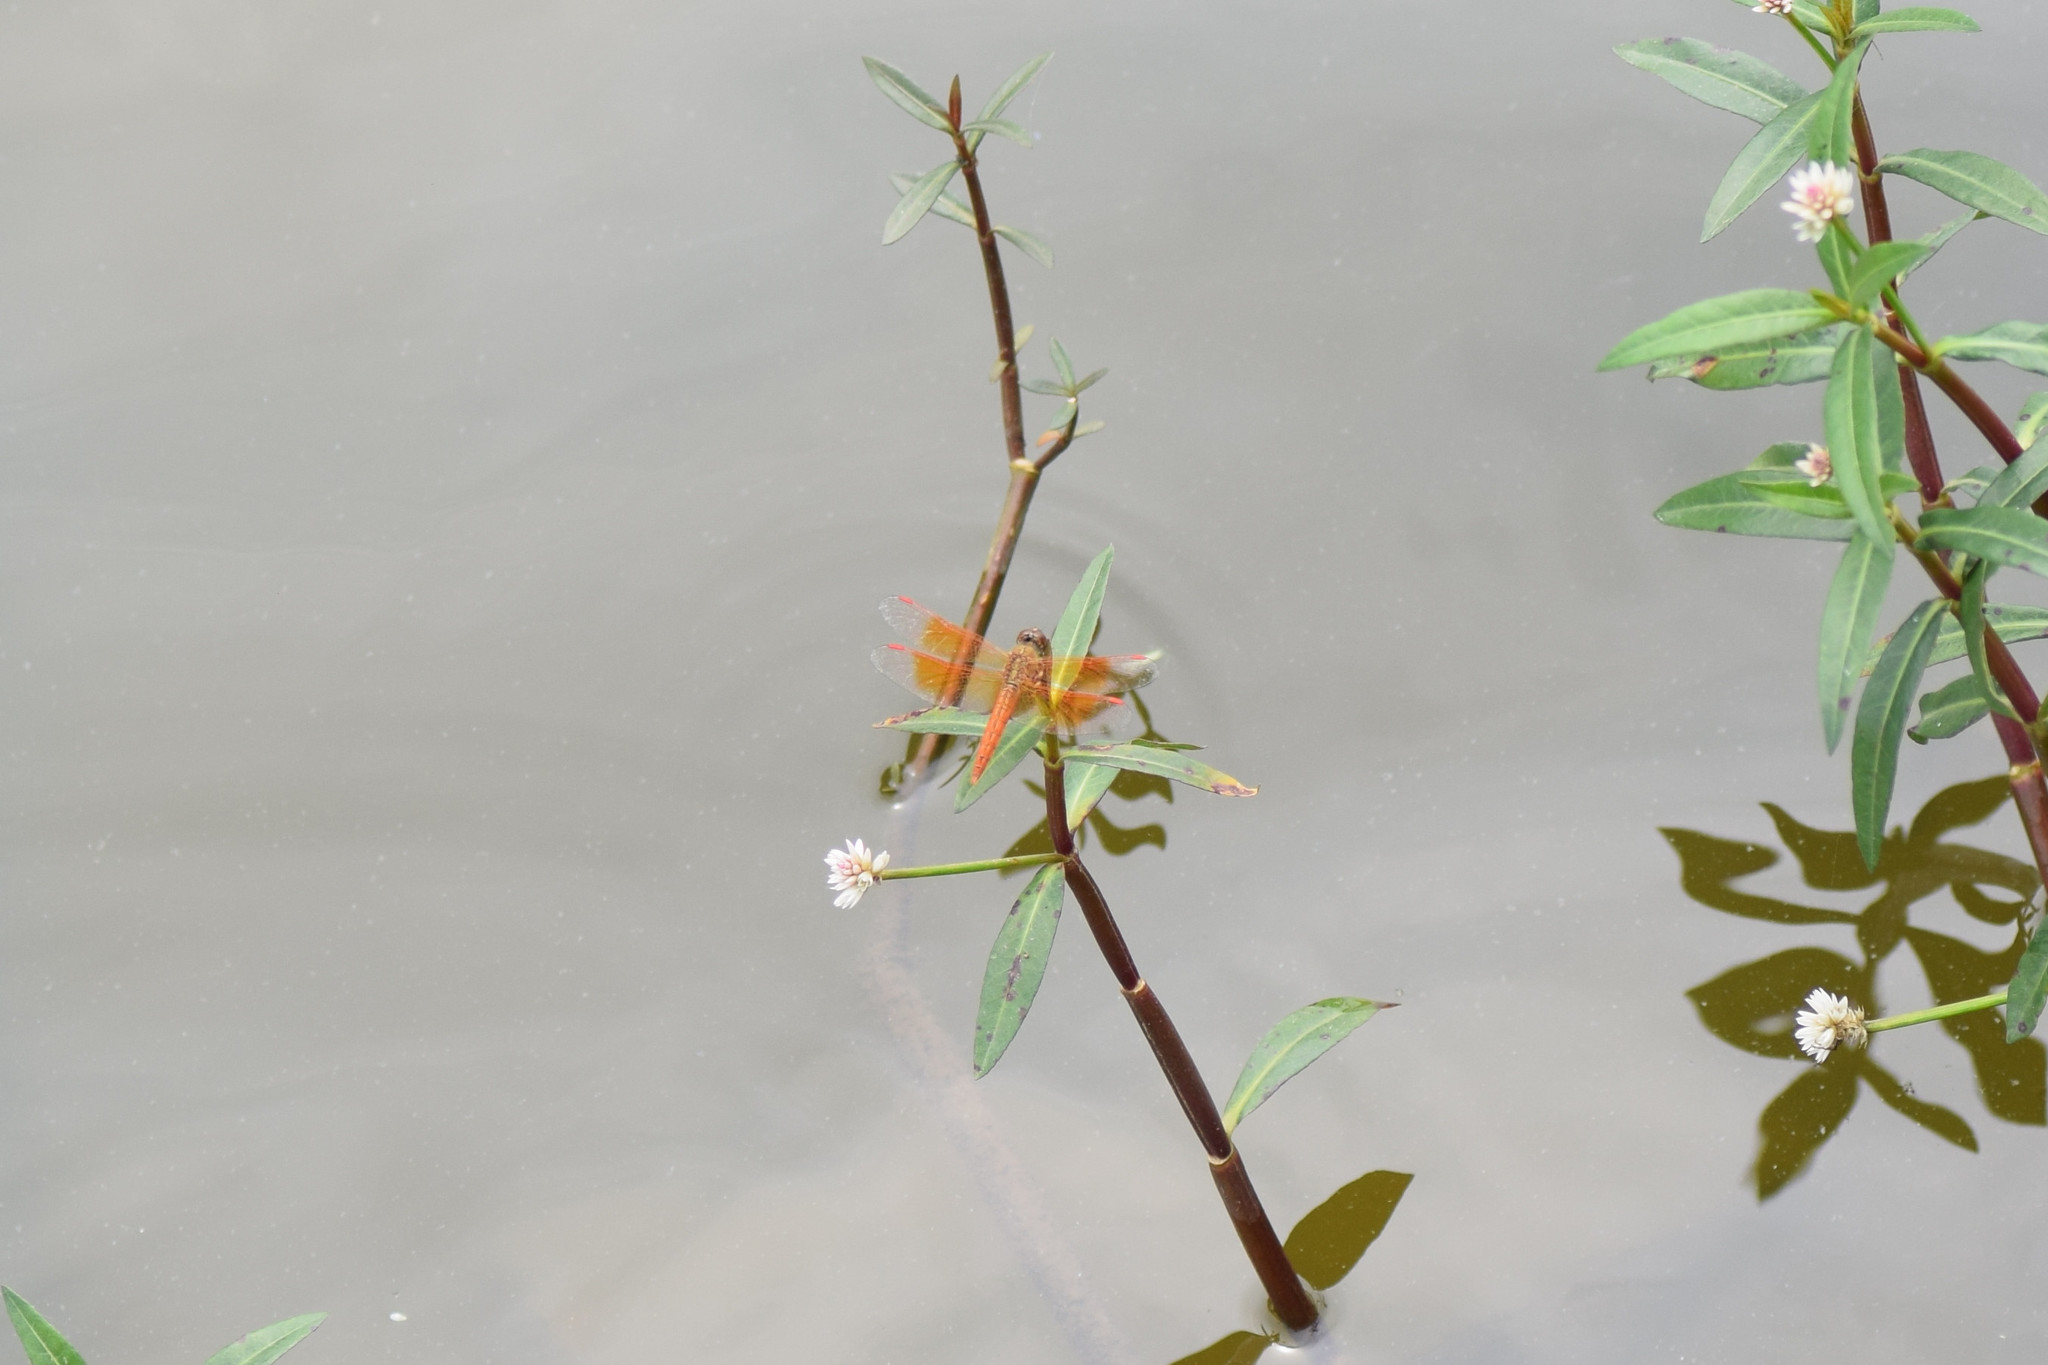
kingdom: Animalia
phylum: Arthropoda
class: Insecta
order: Odonata
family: Libellulidae
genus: Brachythemis
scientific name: Brachythemis contaminata
